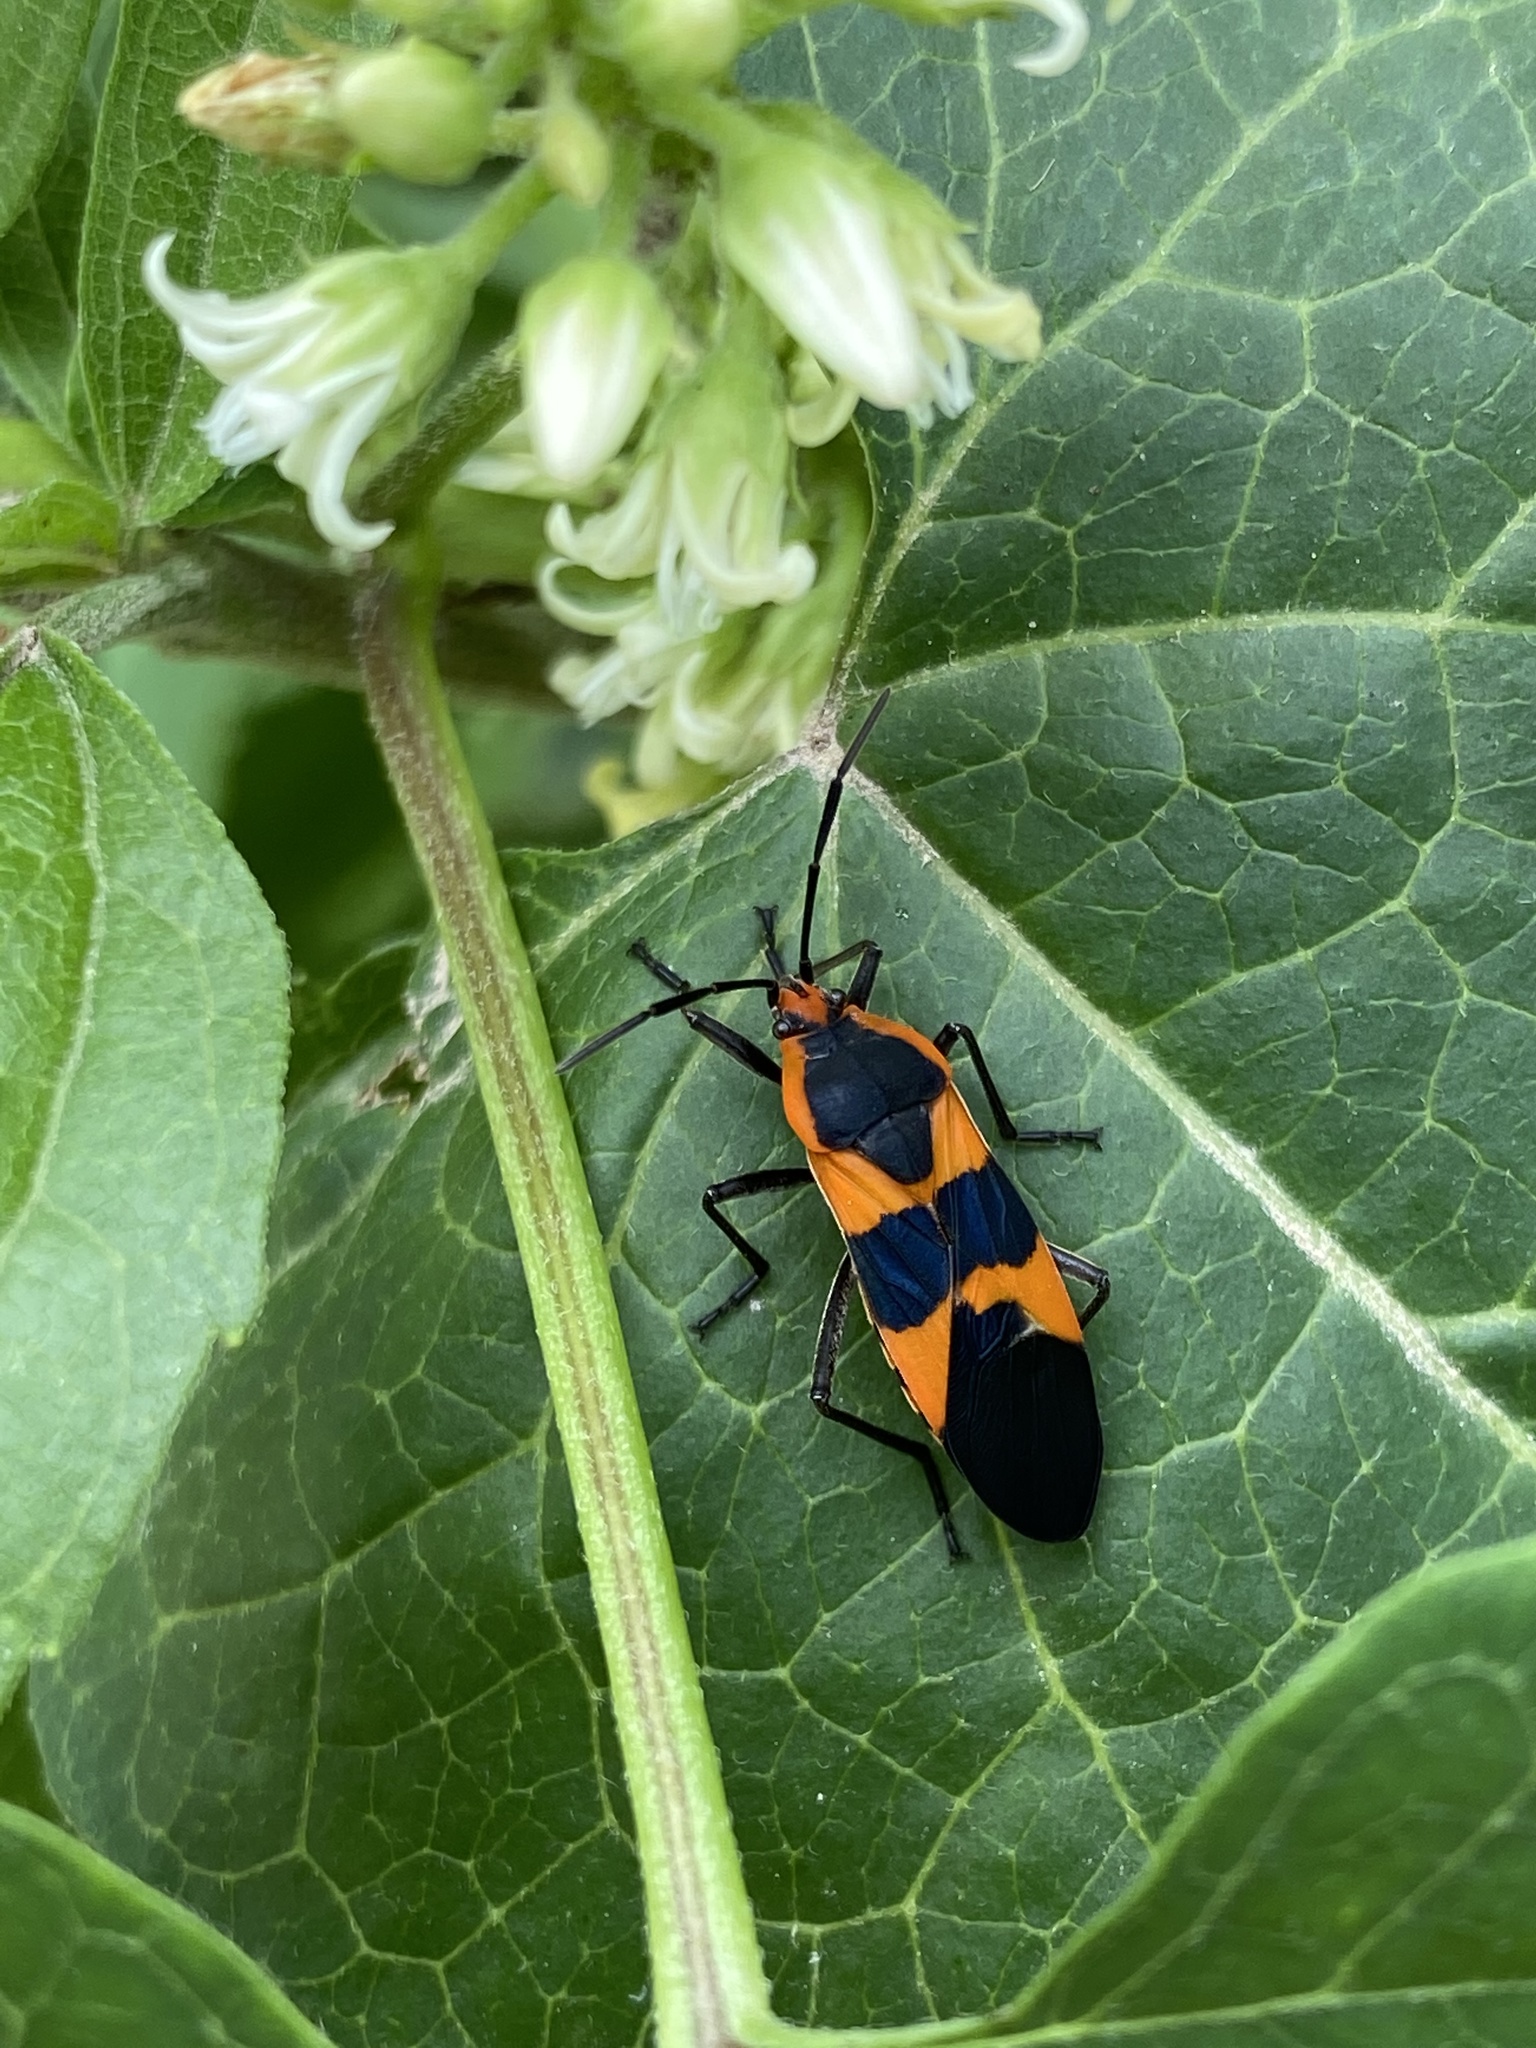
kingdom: Animalia
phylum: Arthropoda
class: Insecta
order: Hemiptera
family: Lygaeidae
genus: Oncopeltus
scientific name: Oncopeltus fasciatus
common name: Large milkweed bug
